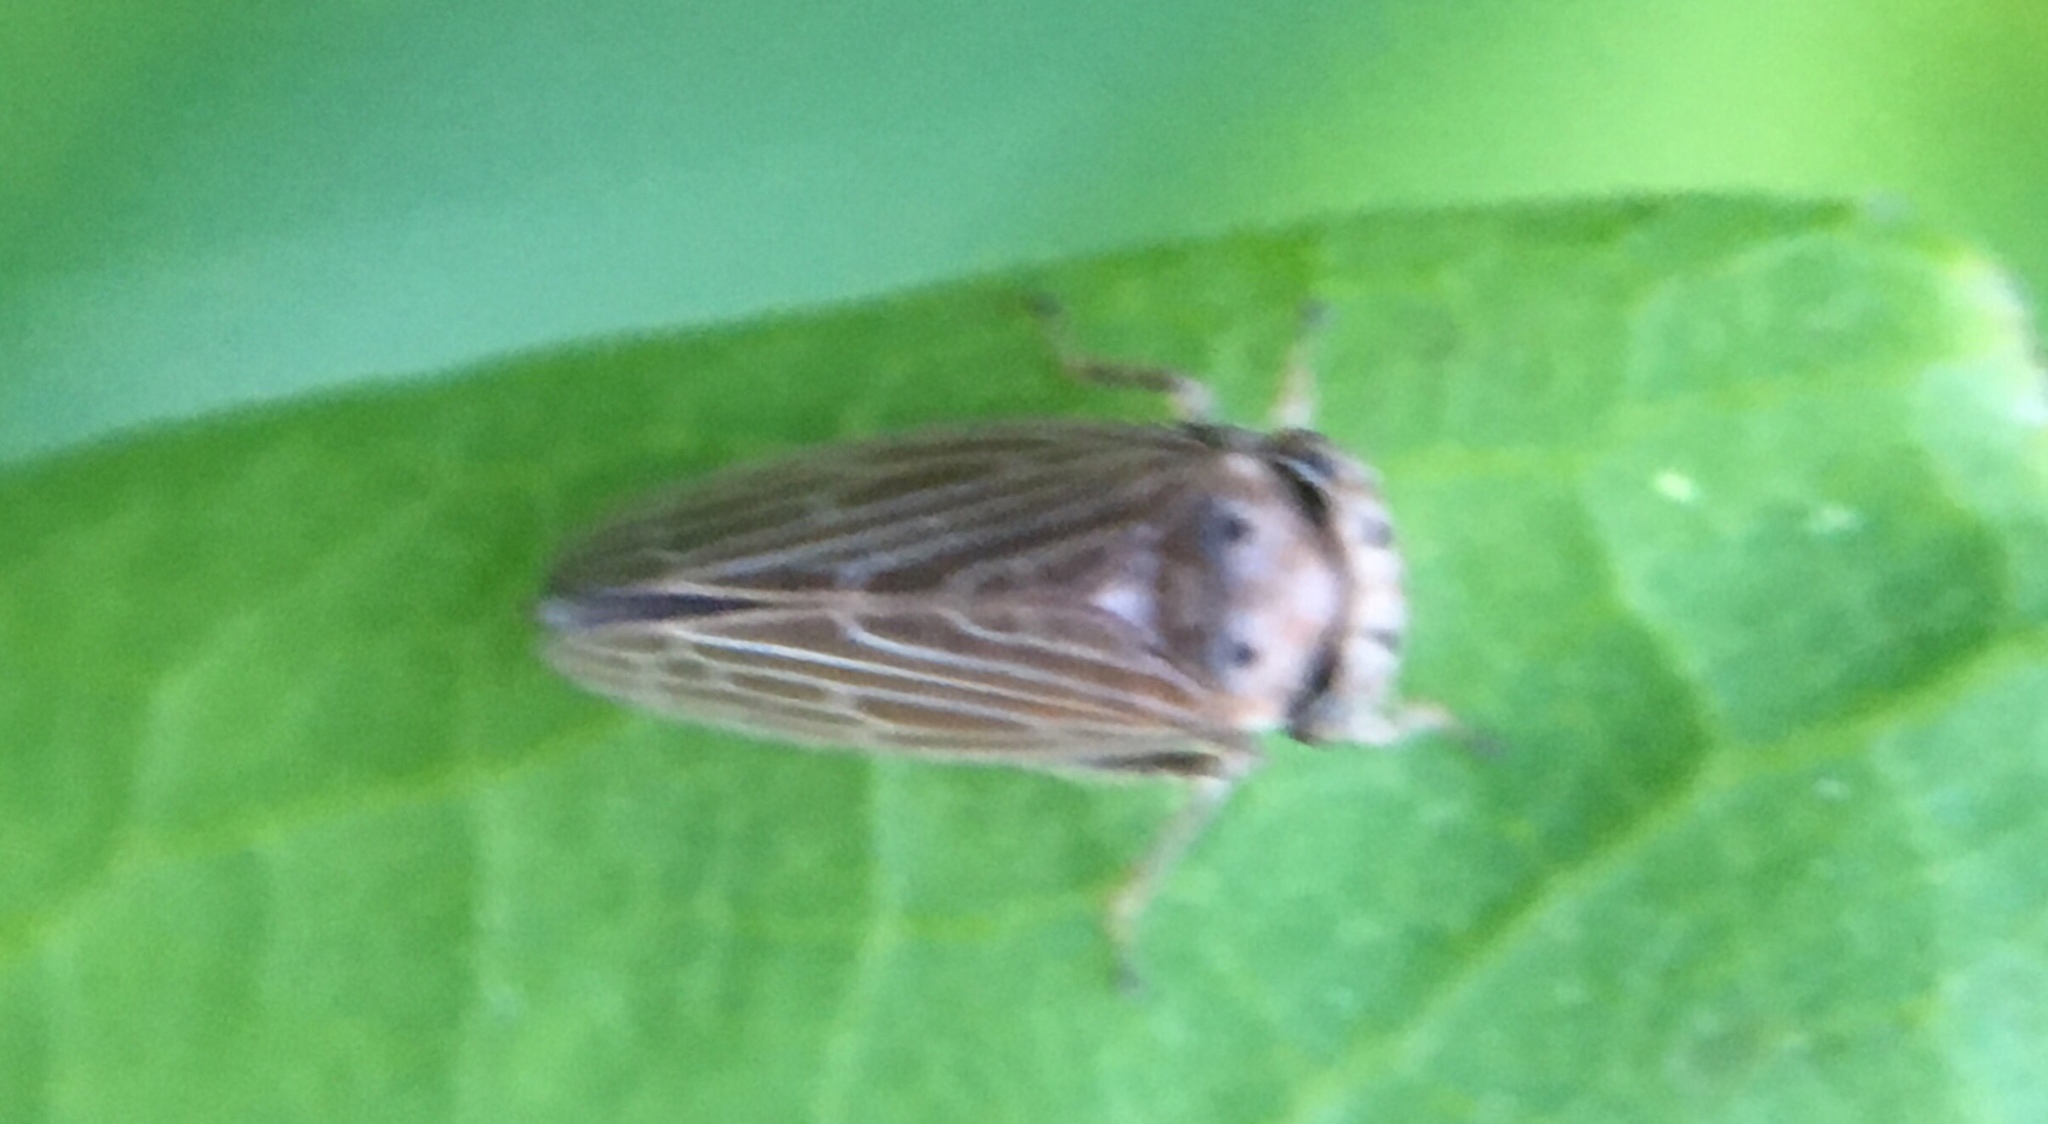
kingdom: Animalia
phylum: Arthropoda
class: Insecta
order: Hemiptera
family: Cicadellidae
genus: Agalliota
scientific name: Agalliota quadripunctata
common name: The four-spotted clover leafhopper
